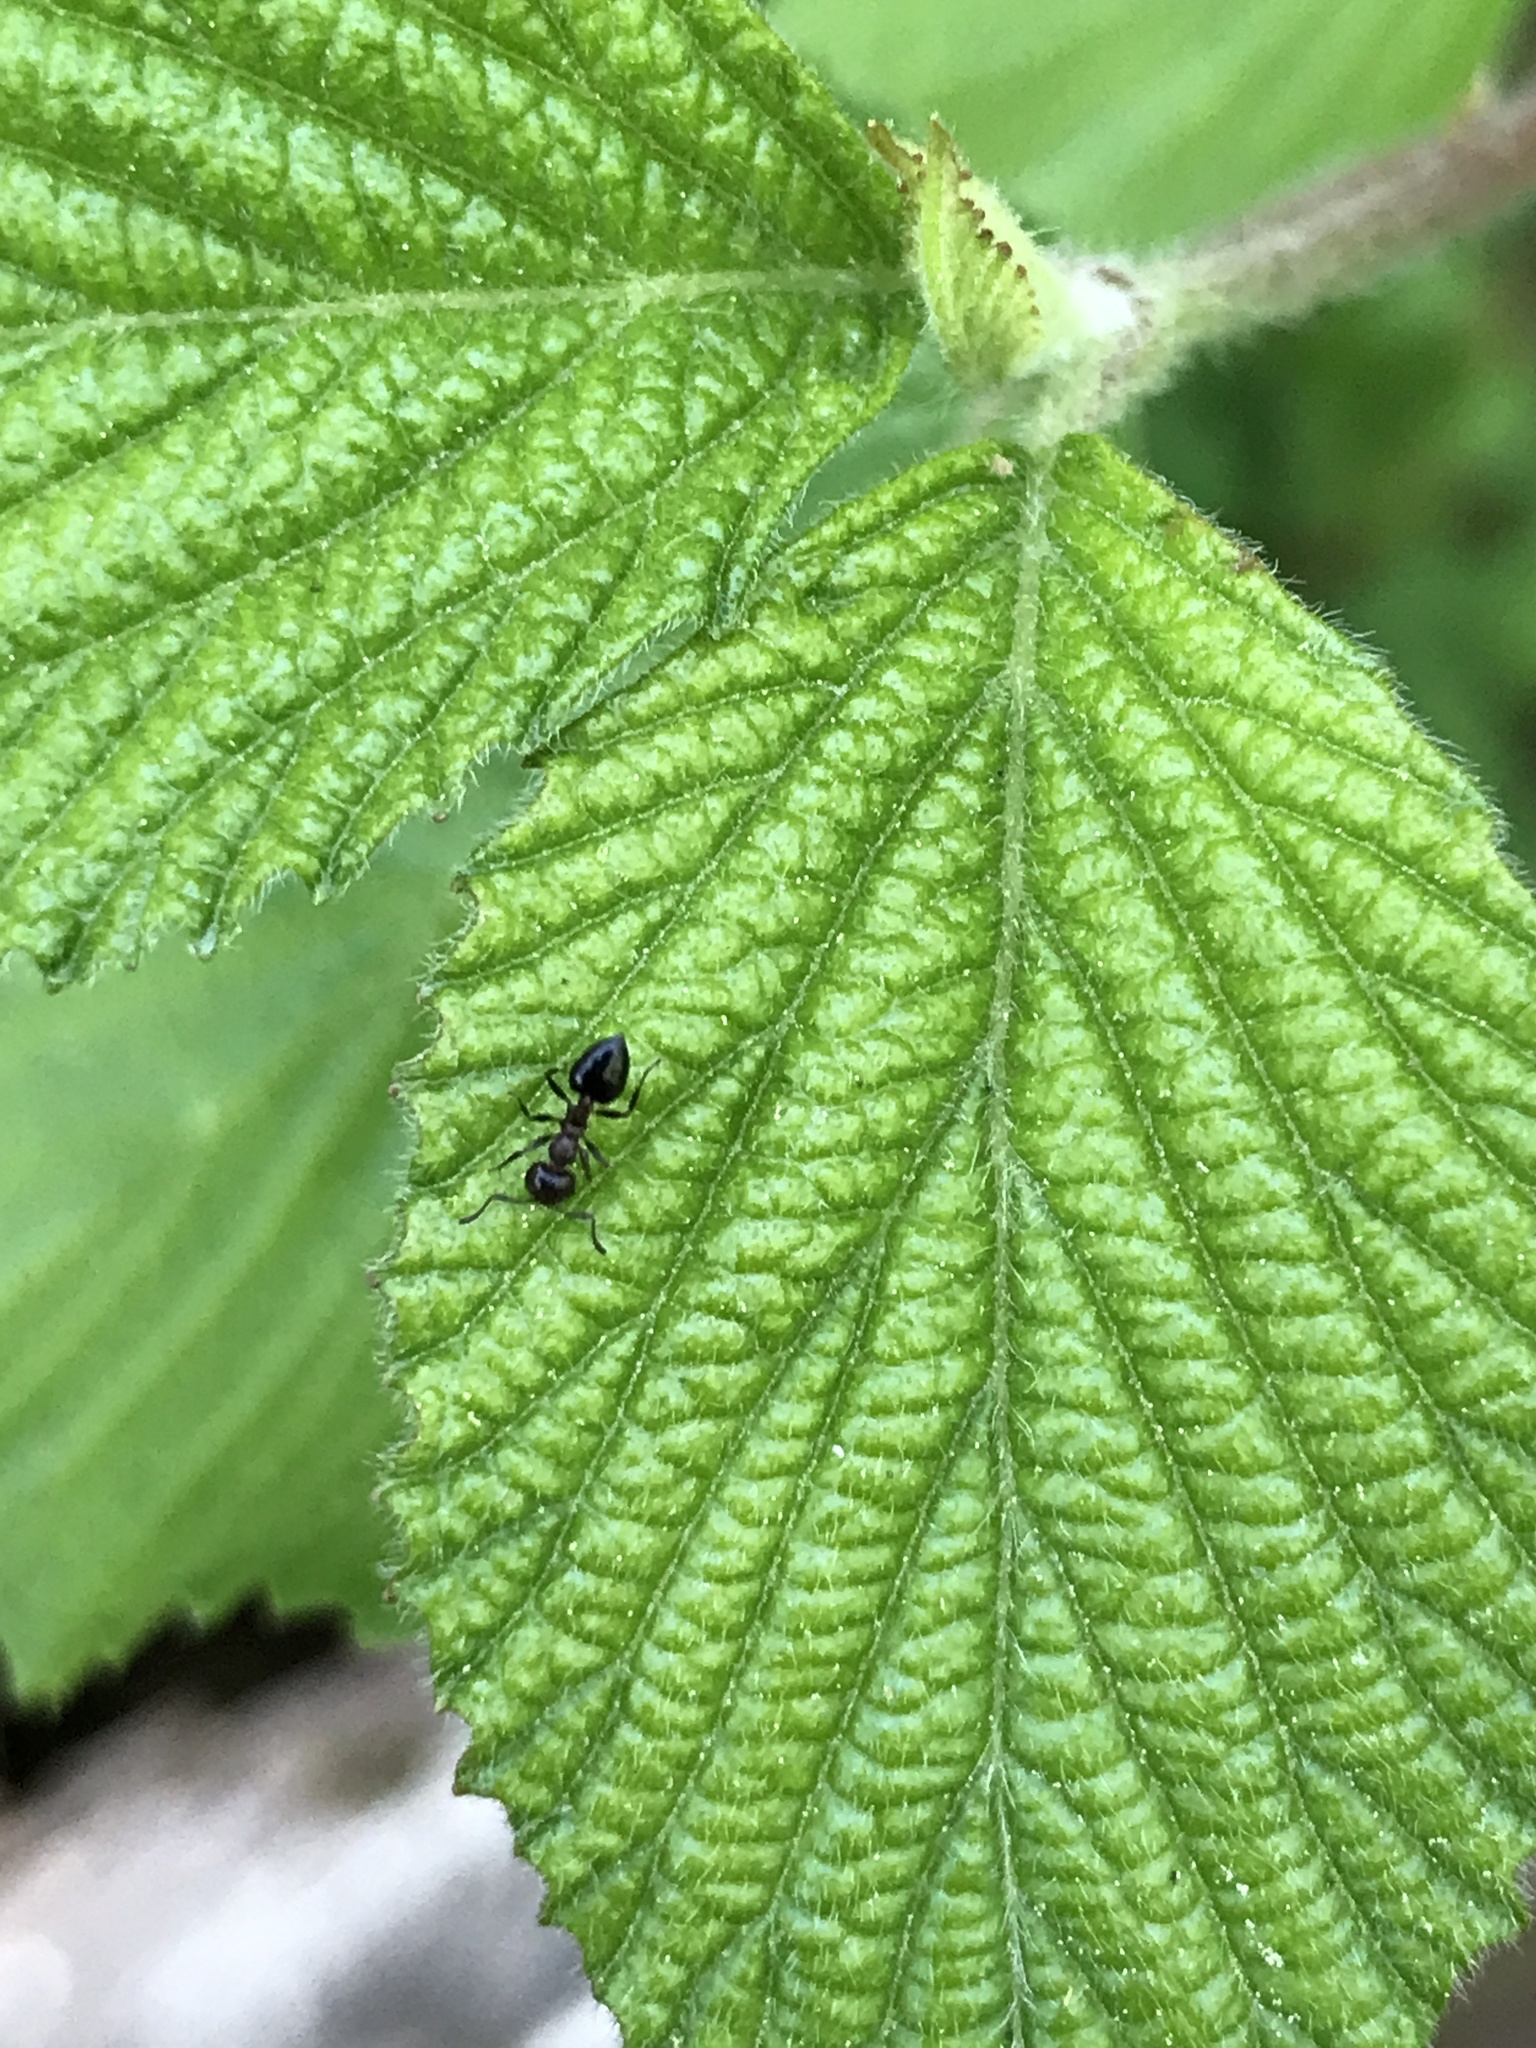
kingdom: Animalia
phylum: Arthropoda
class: Insecta
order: Hymenoptera
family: Formicidae
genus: Prenolepis
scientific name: Prenolepis imparis
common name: Small honey ant
